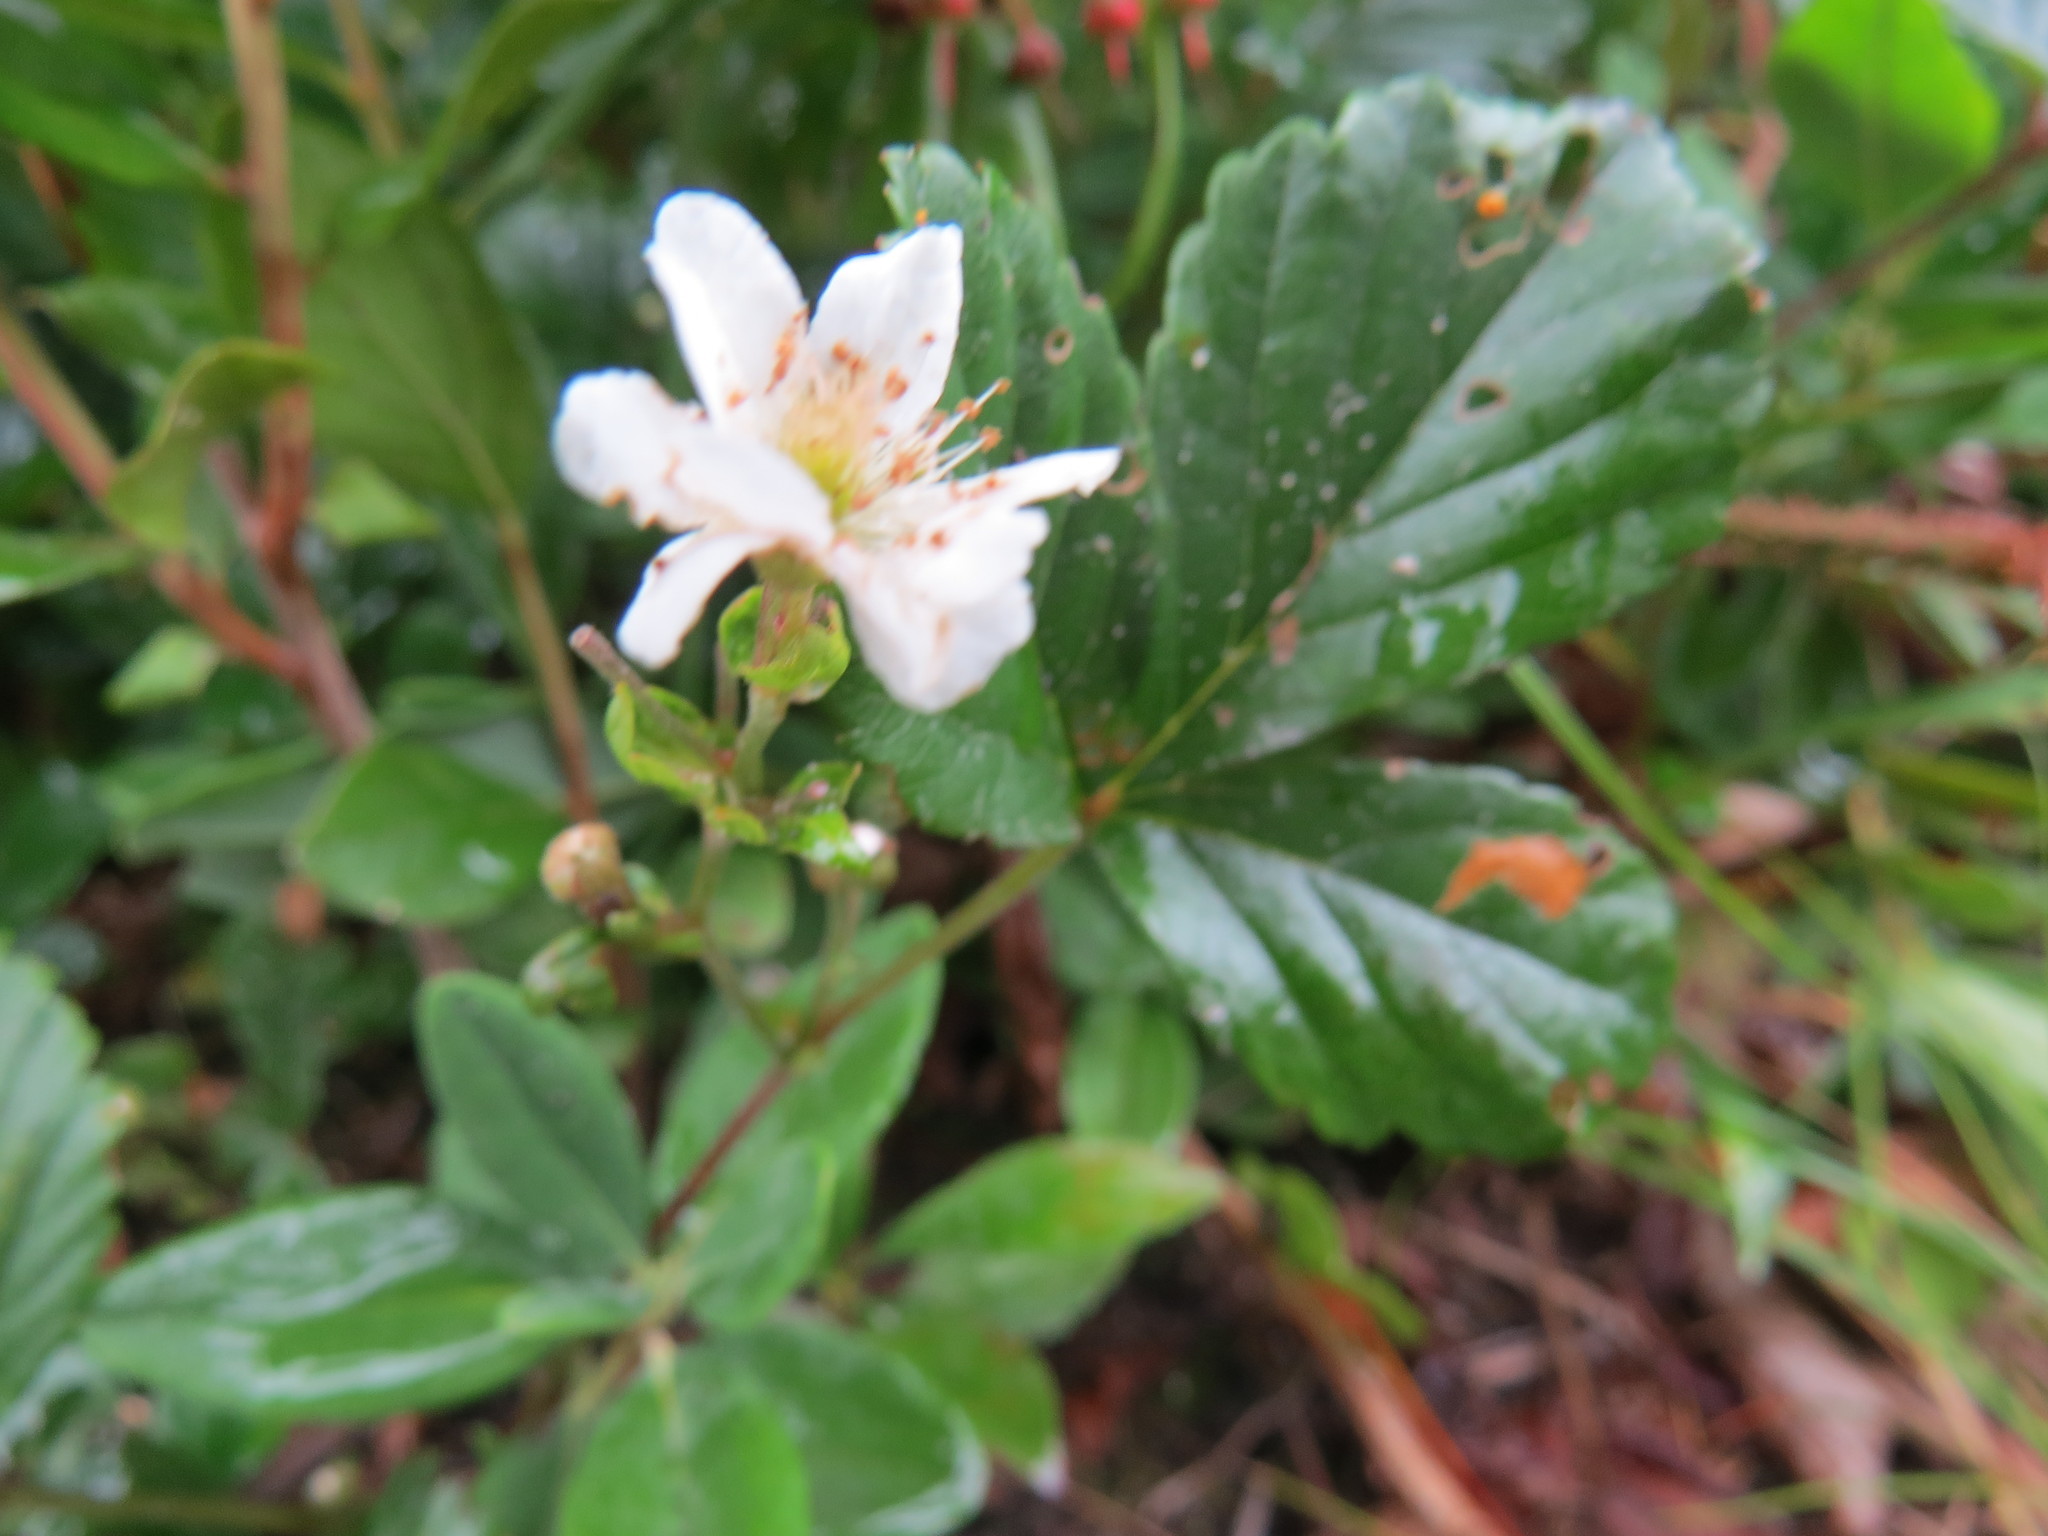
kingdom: Plantae
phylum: Tracheophyta
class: Magnoliopsida
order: Rosales
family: Rosaceae
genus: Rubus
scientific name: Rubus hispidus
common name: Running blackberry
